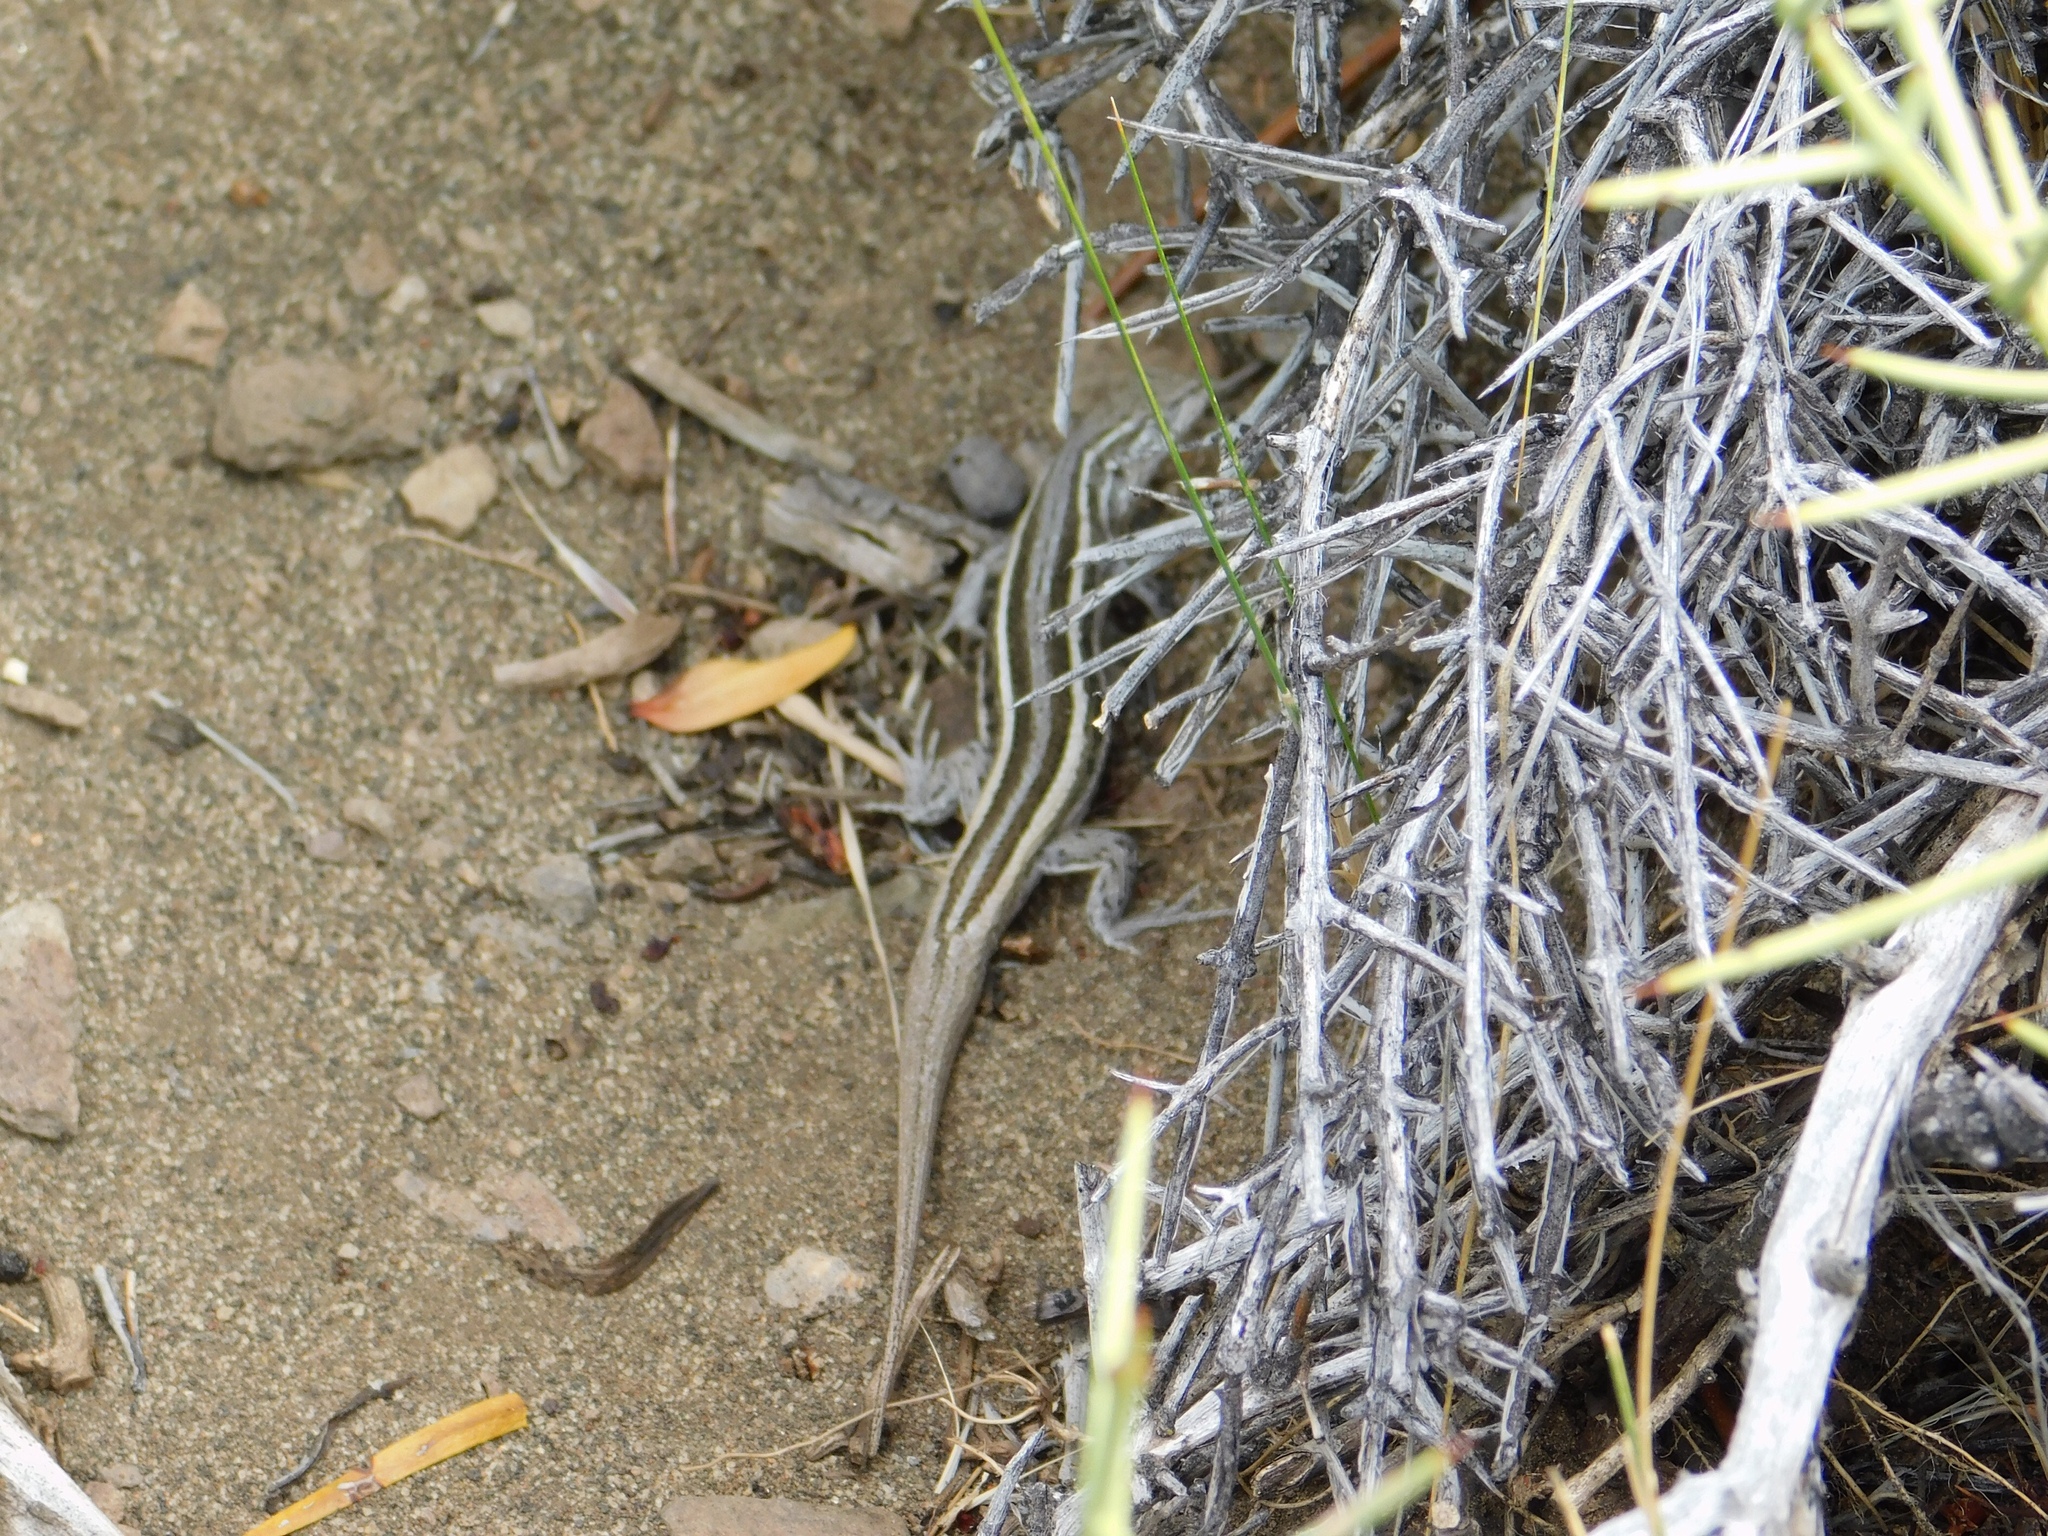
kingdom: Animalia
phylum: Chordata
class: Squamata
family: Liolaemidae
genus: Liolaemus
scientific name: Liolaemus gracilis
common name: Graceful tree iguana
